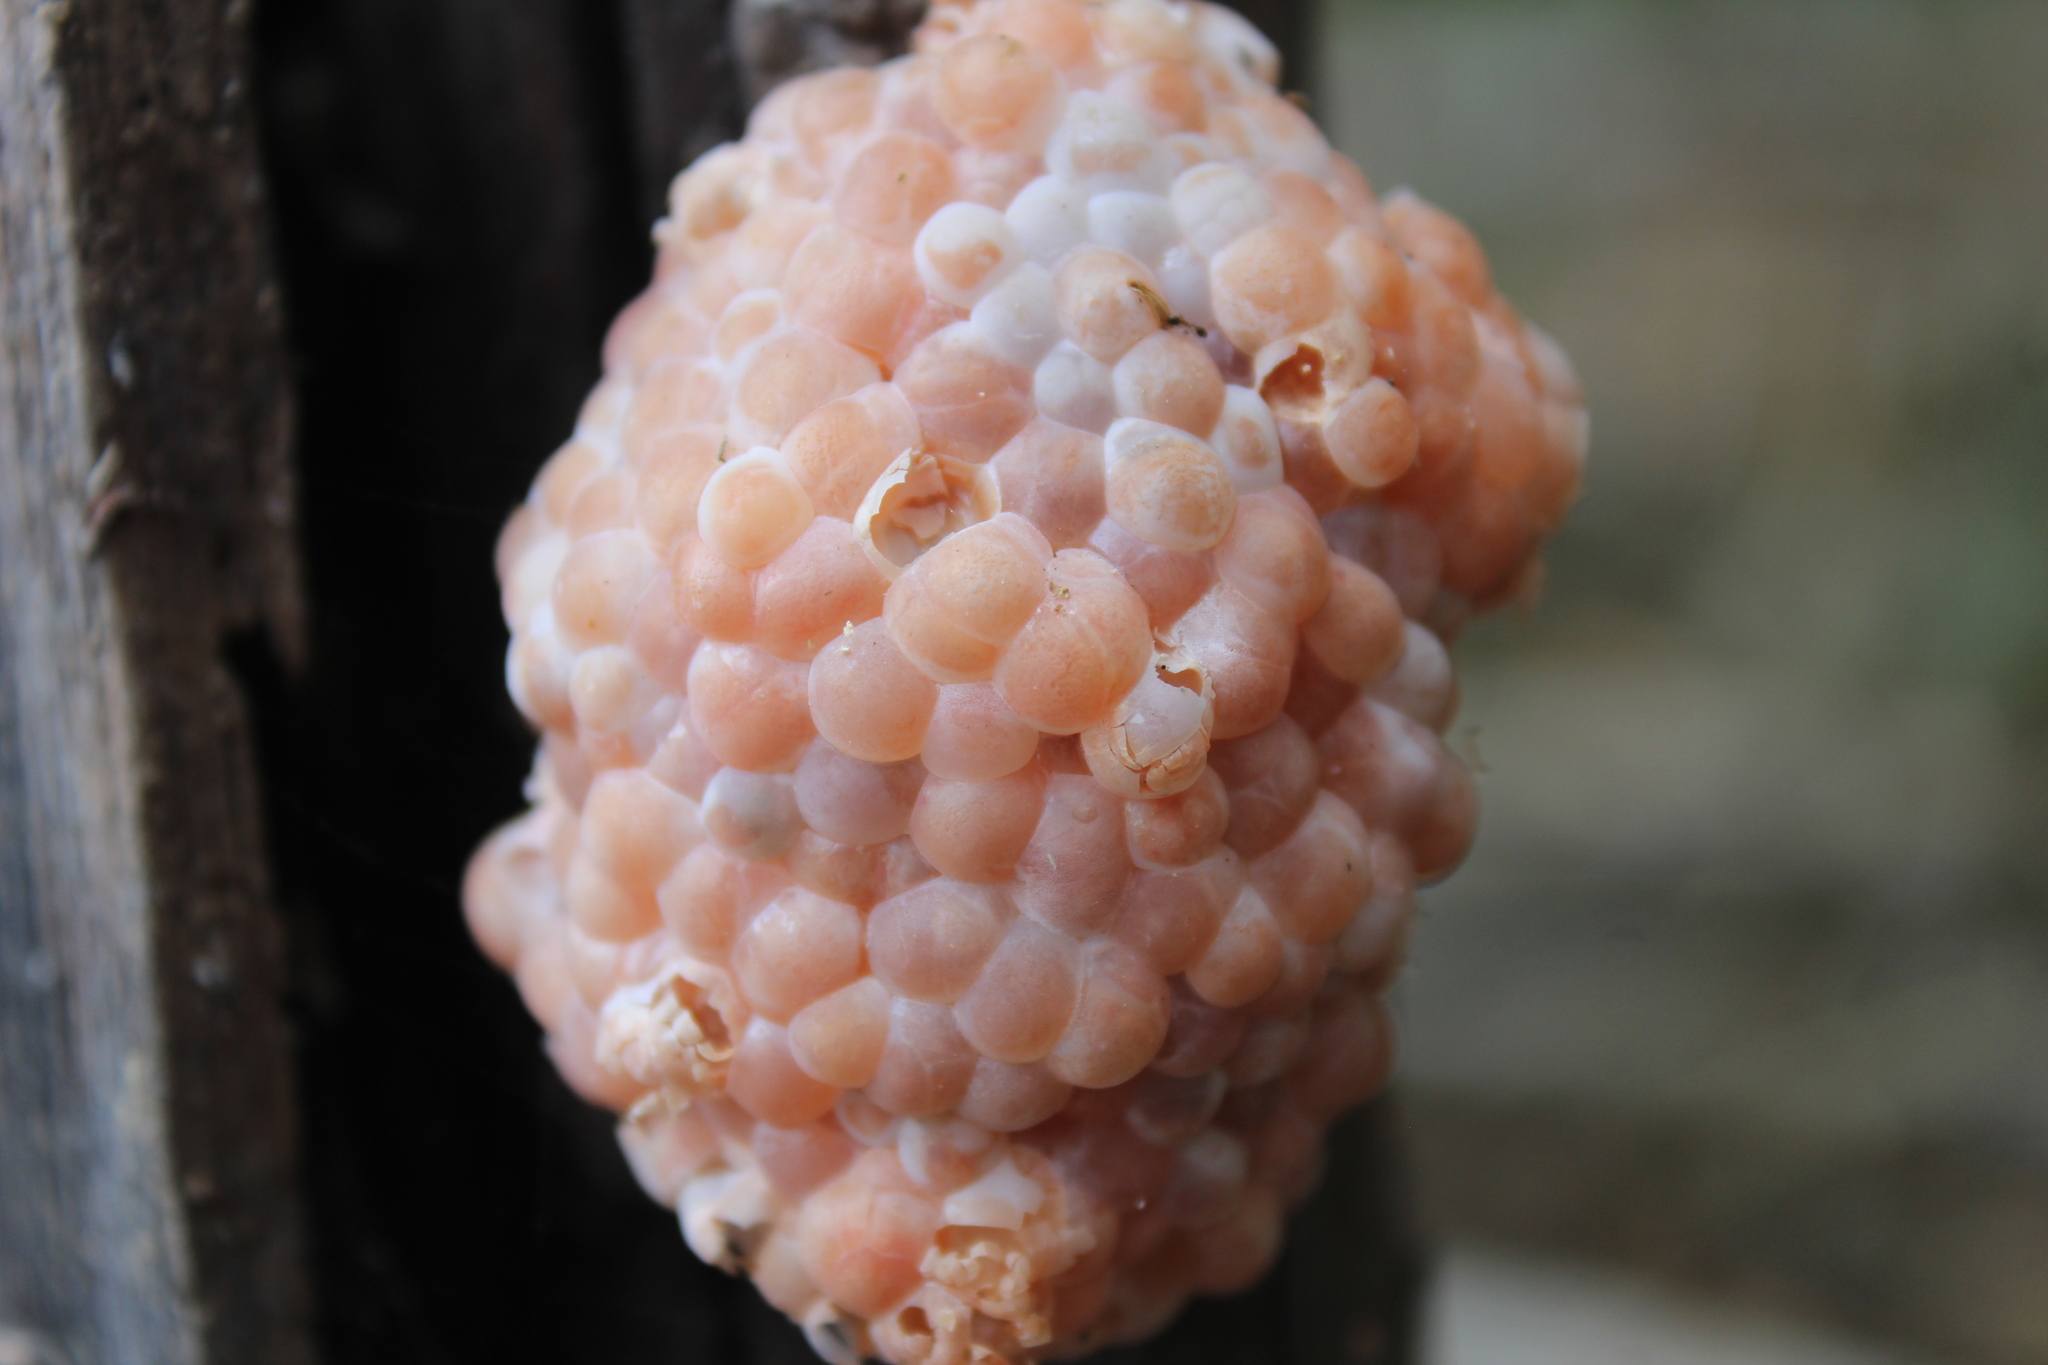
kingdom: Animalia
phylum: Mollusca
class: Gastropoda
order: Architaenioglossa
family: Ampullariidae
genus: Pomacea
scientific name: Pomacea canaliculata
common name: Channeled applesnail
